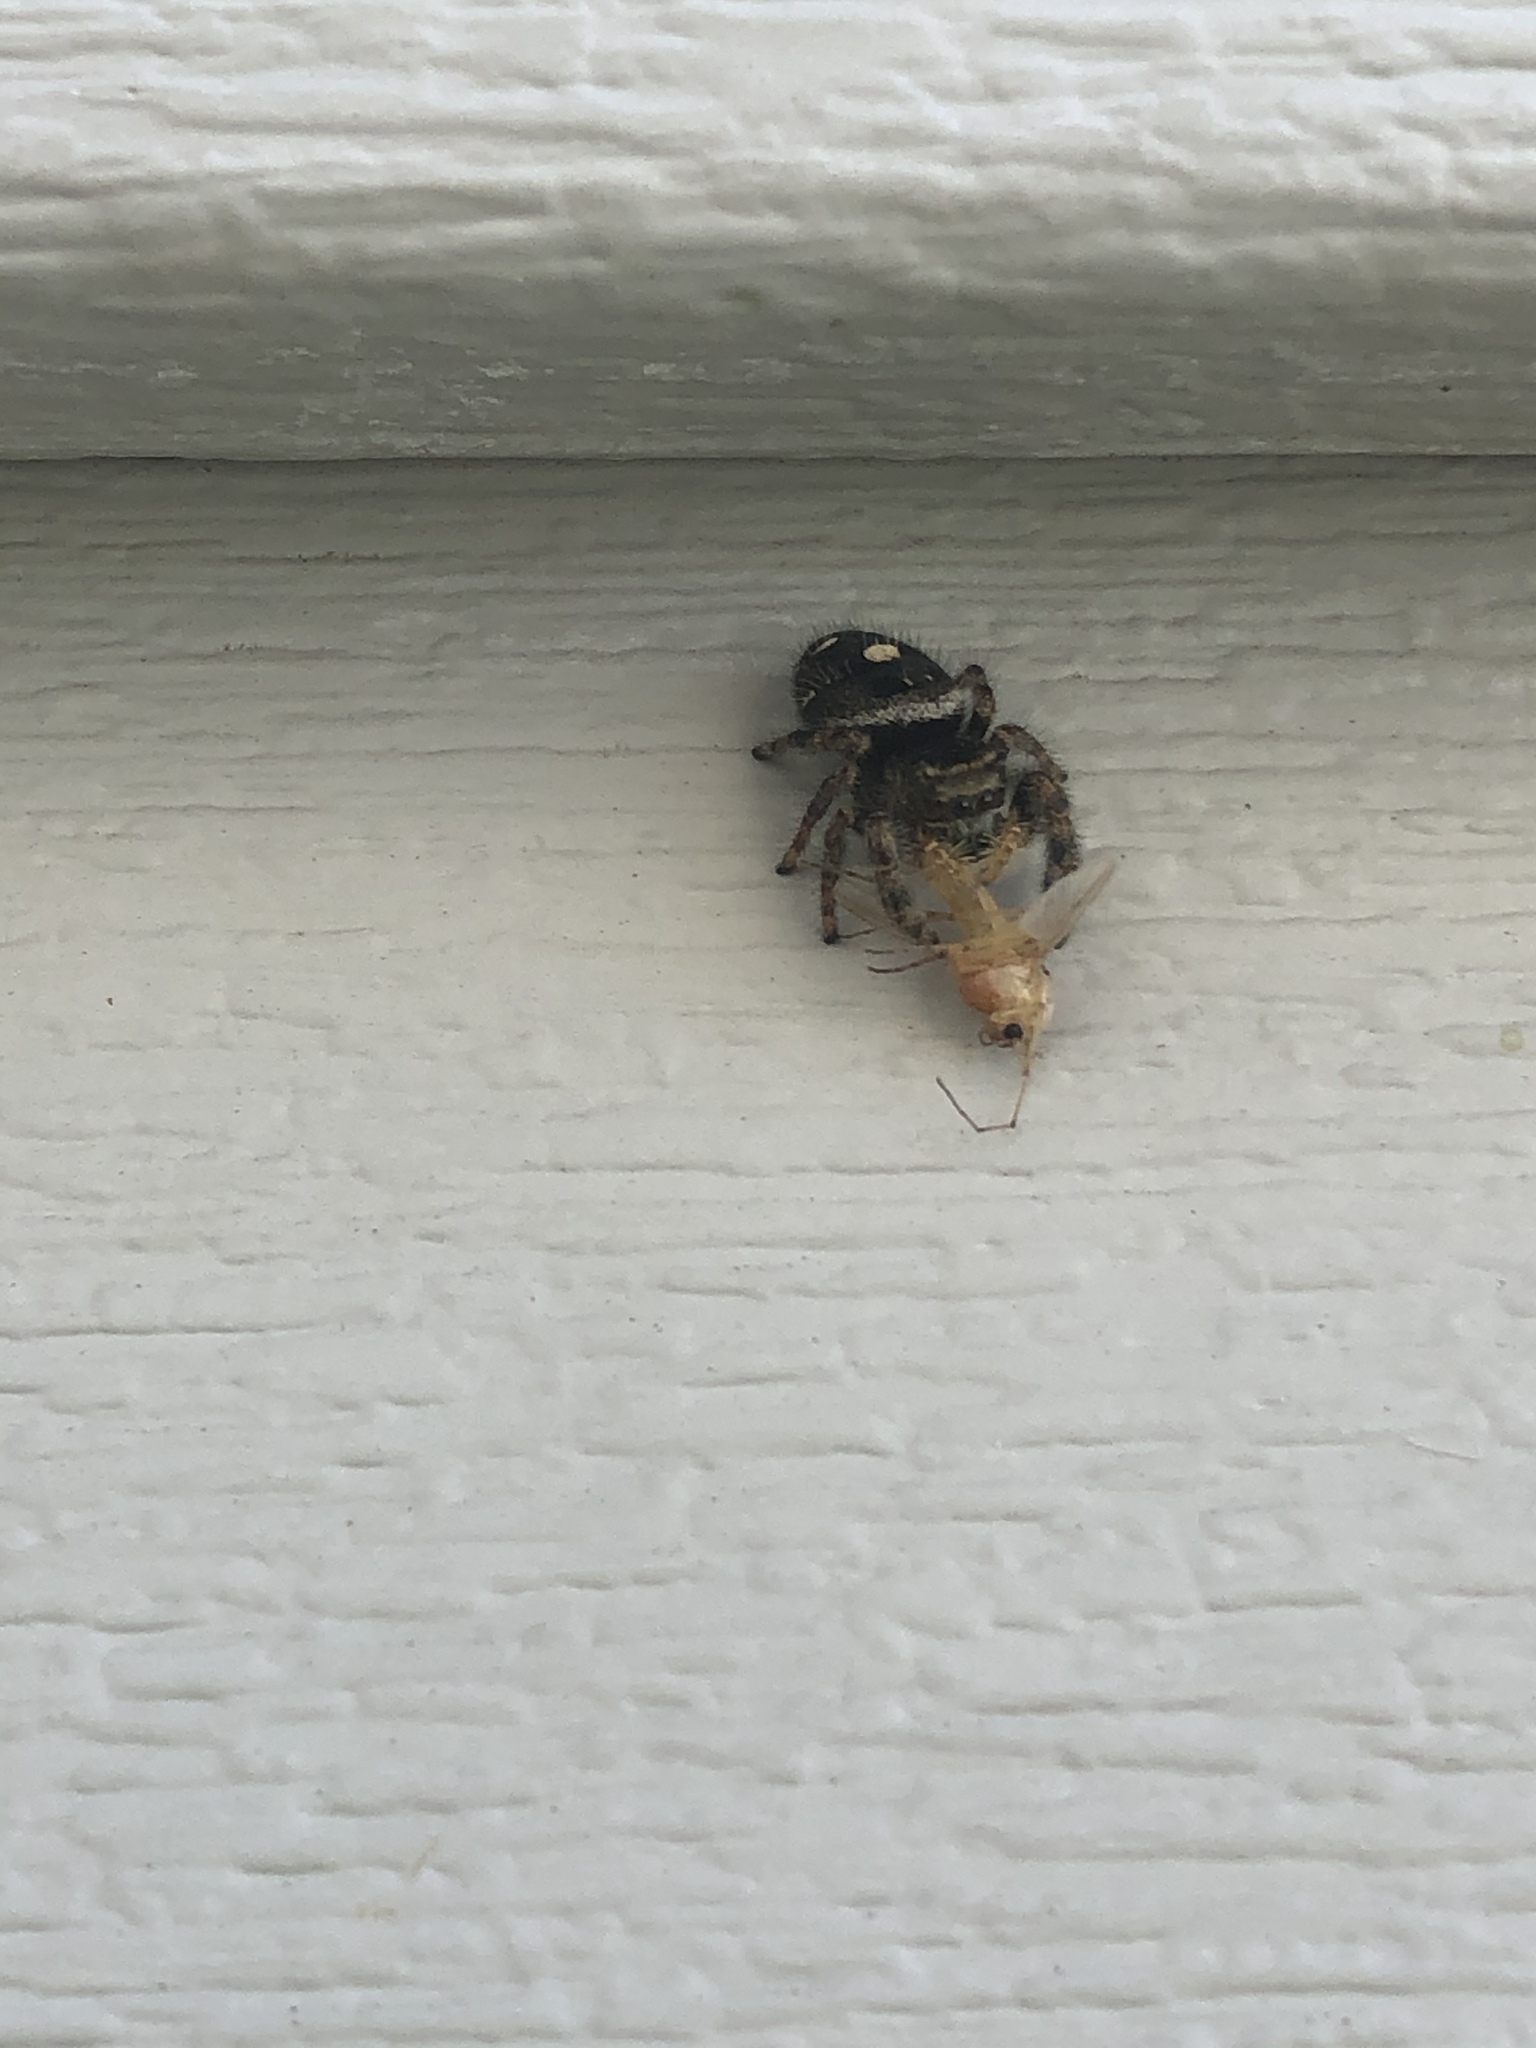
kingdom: Animalia
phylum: Arthropoda
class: Arachnida
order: Araneae
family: Salticidae
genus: Phidippus
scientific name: Phidippus audax
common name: Bold jumper
